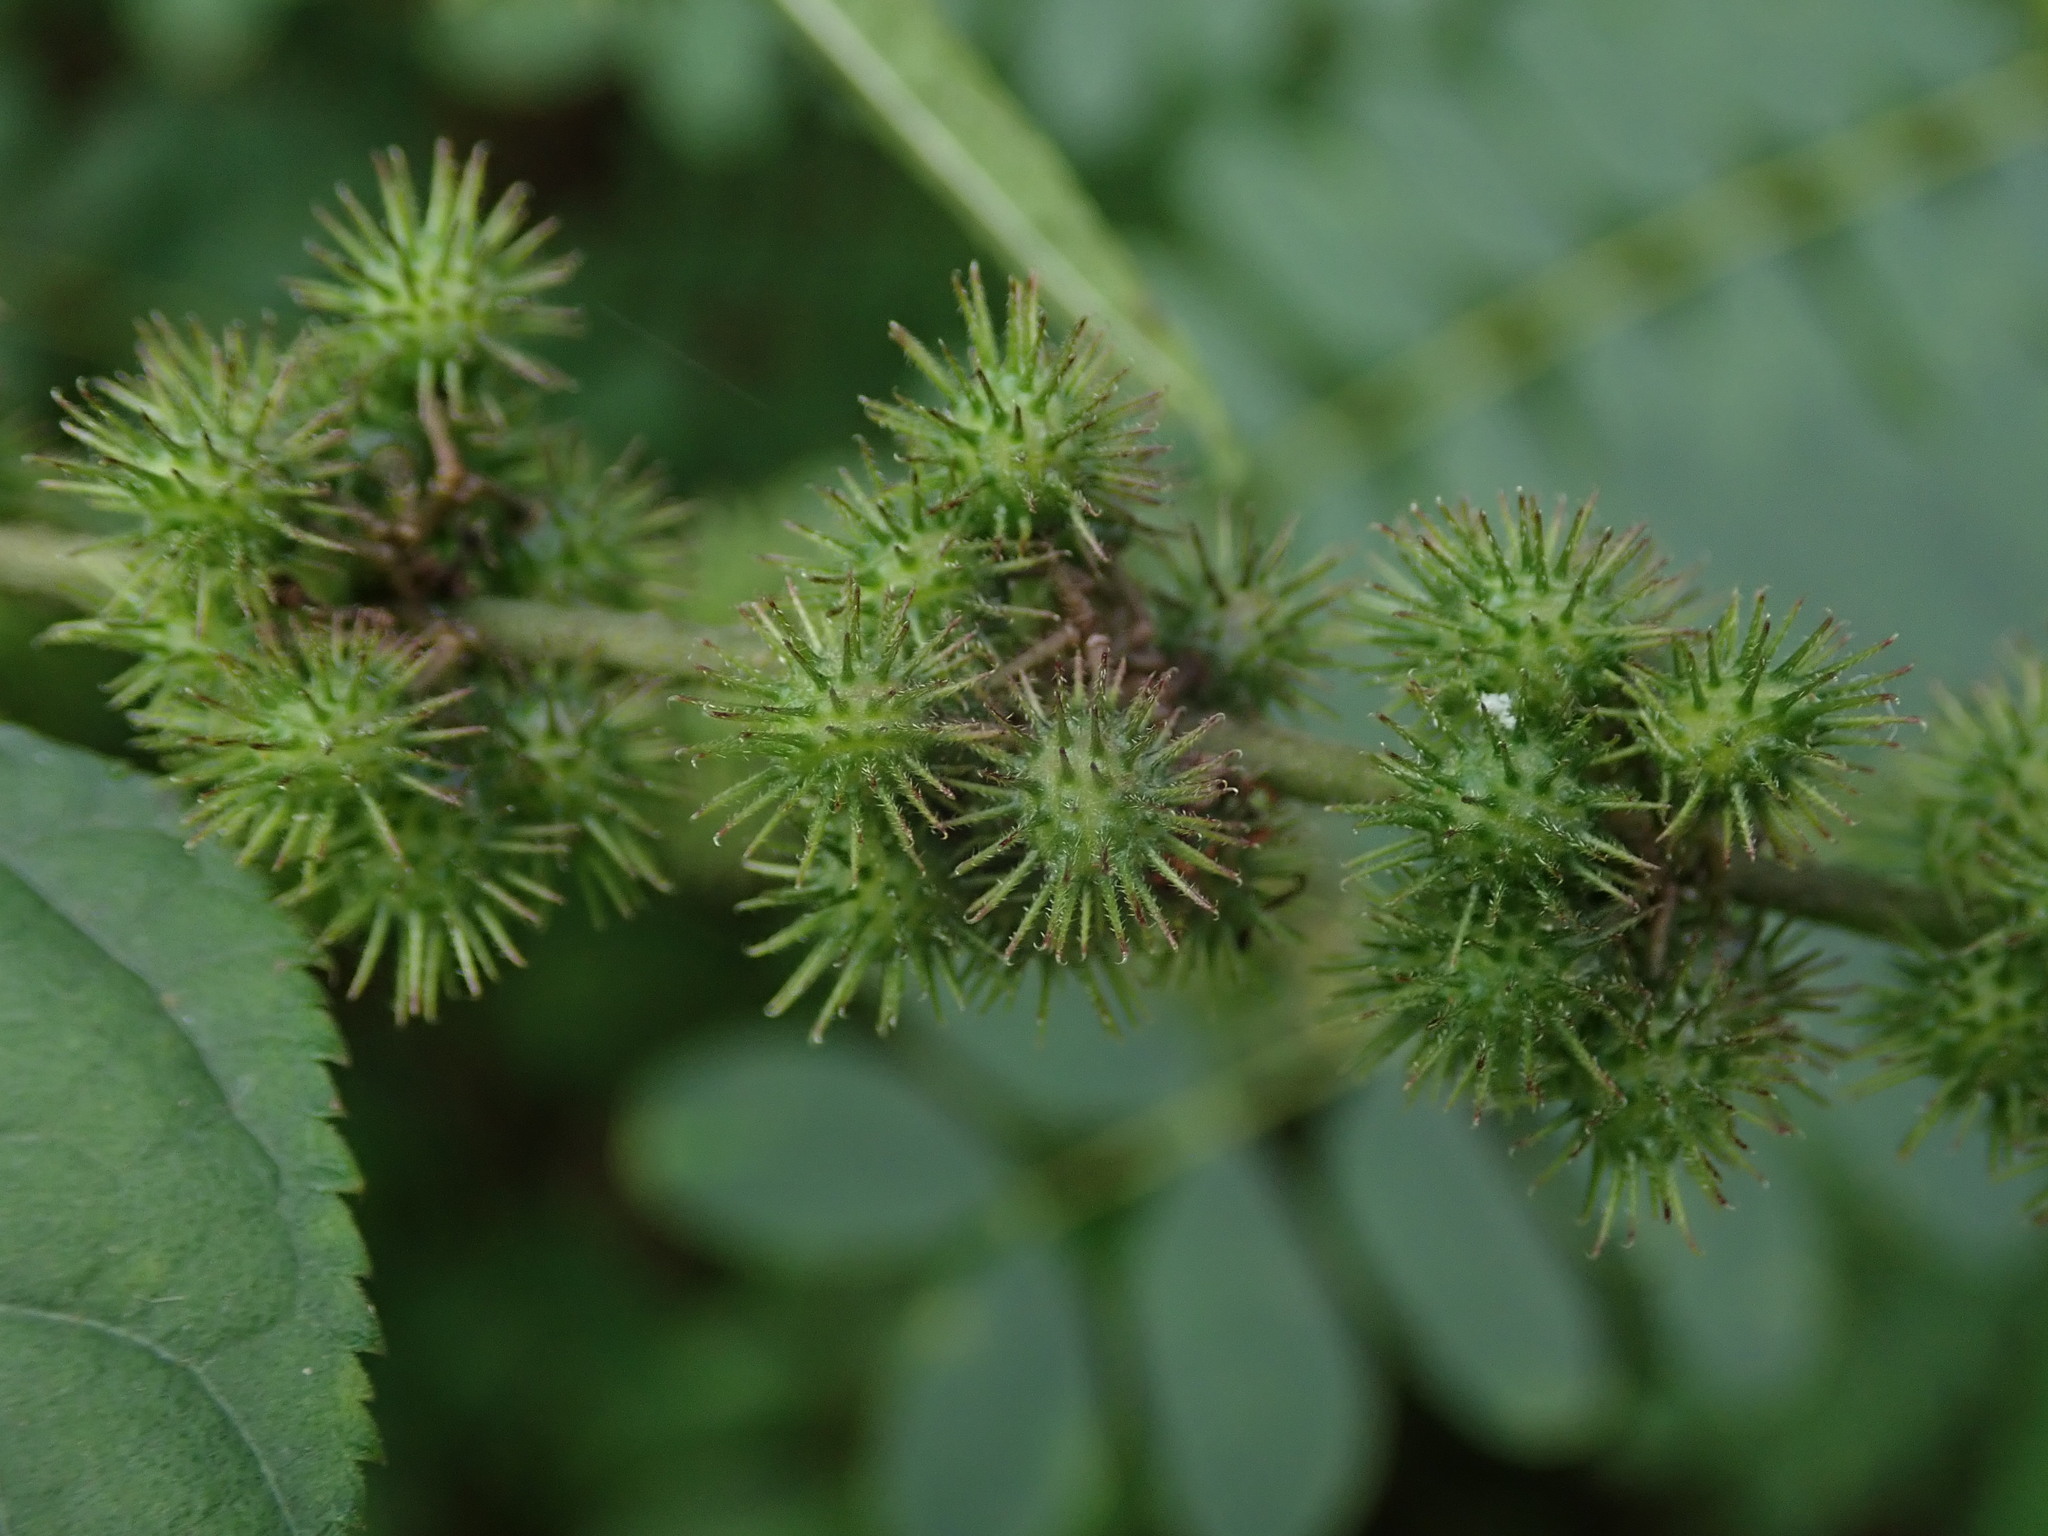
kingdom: Plantae
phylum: Tracheophyta
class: Magnoliopsida
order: Malvales
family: Malvaceae
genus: Triumfetta
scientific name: Triumfetta semitriloba
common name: Sacramento burbark
